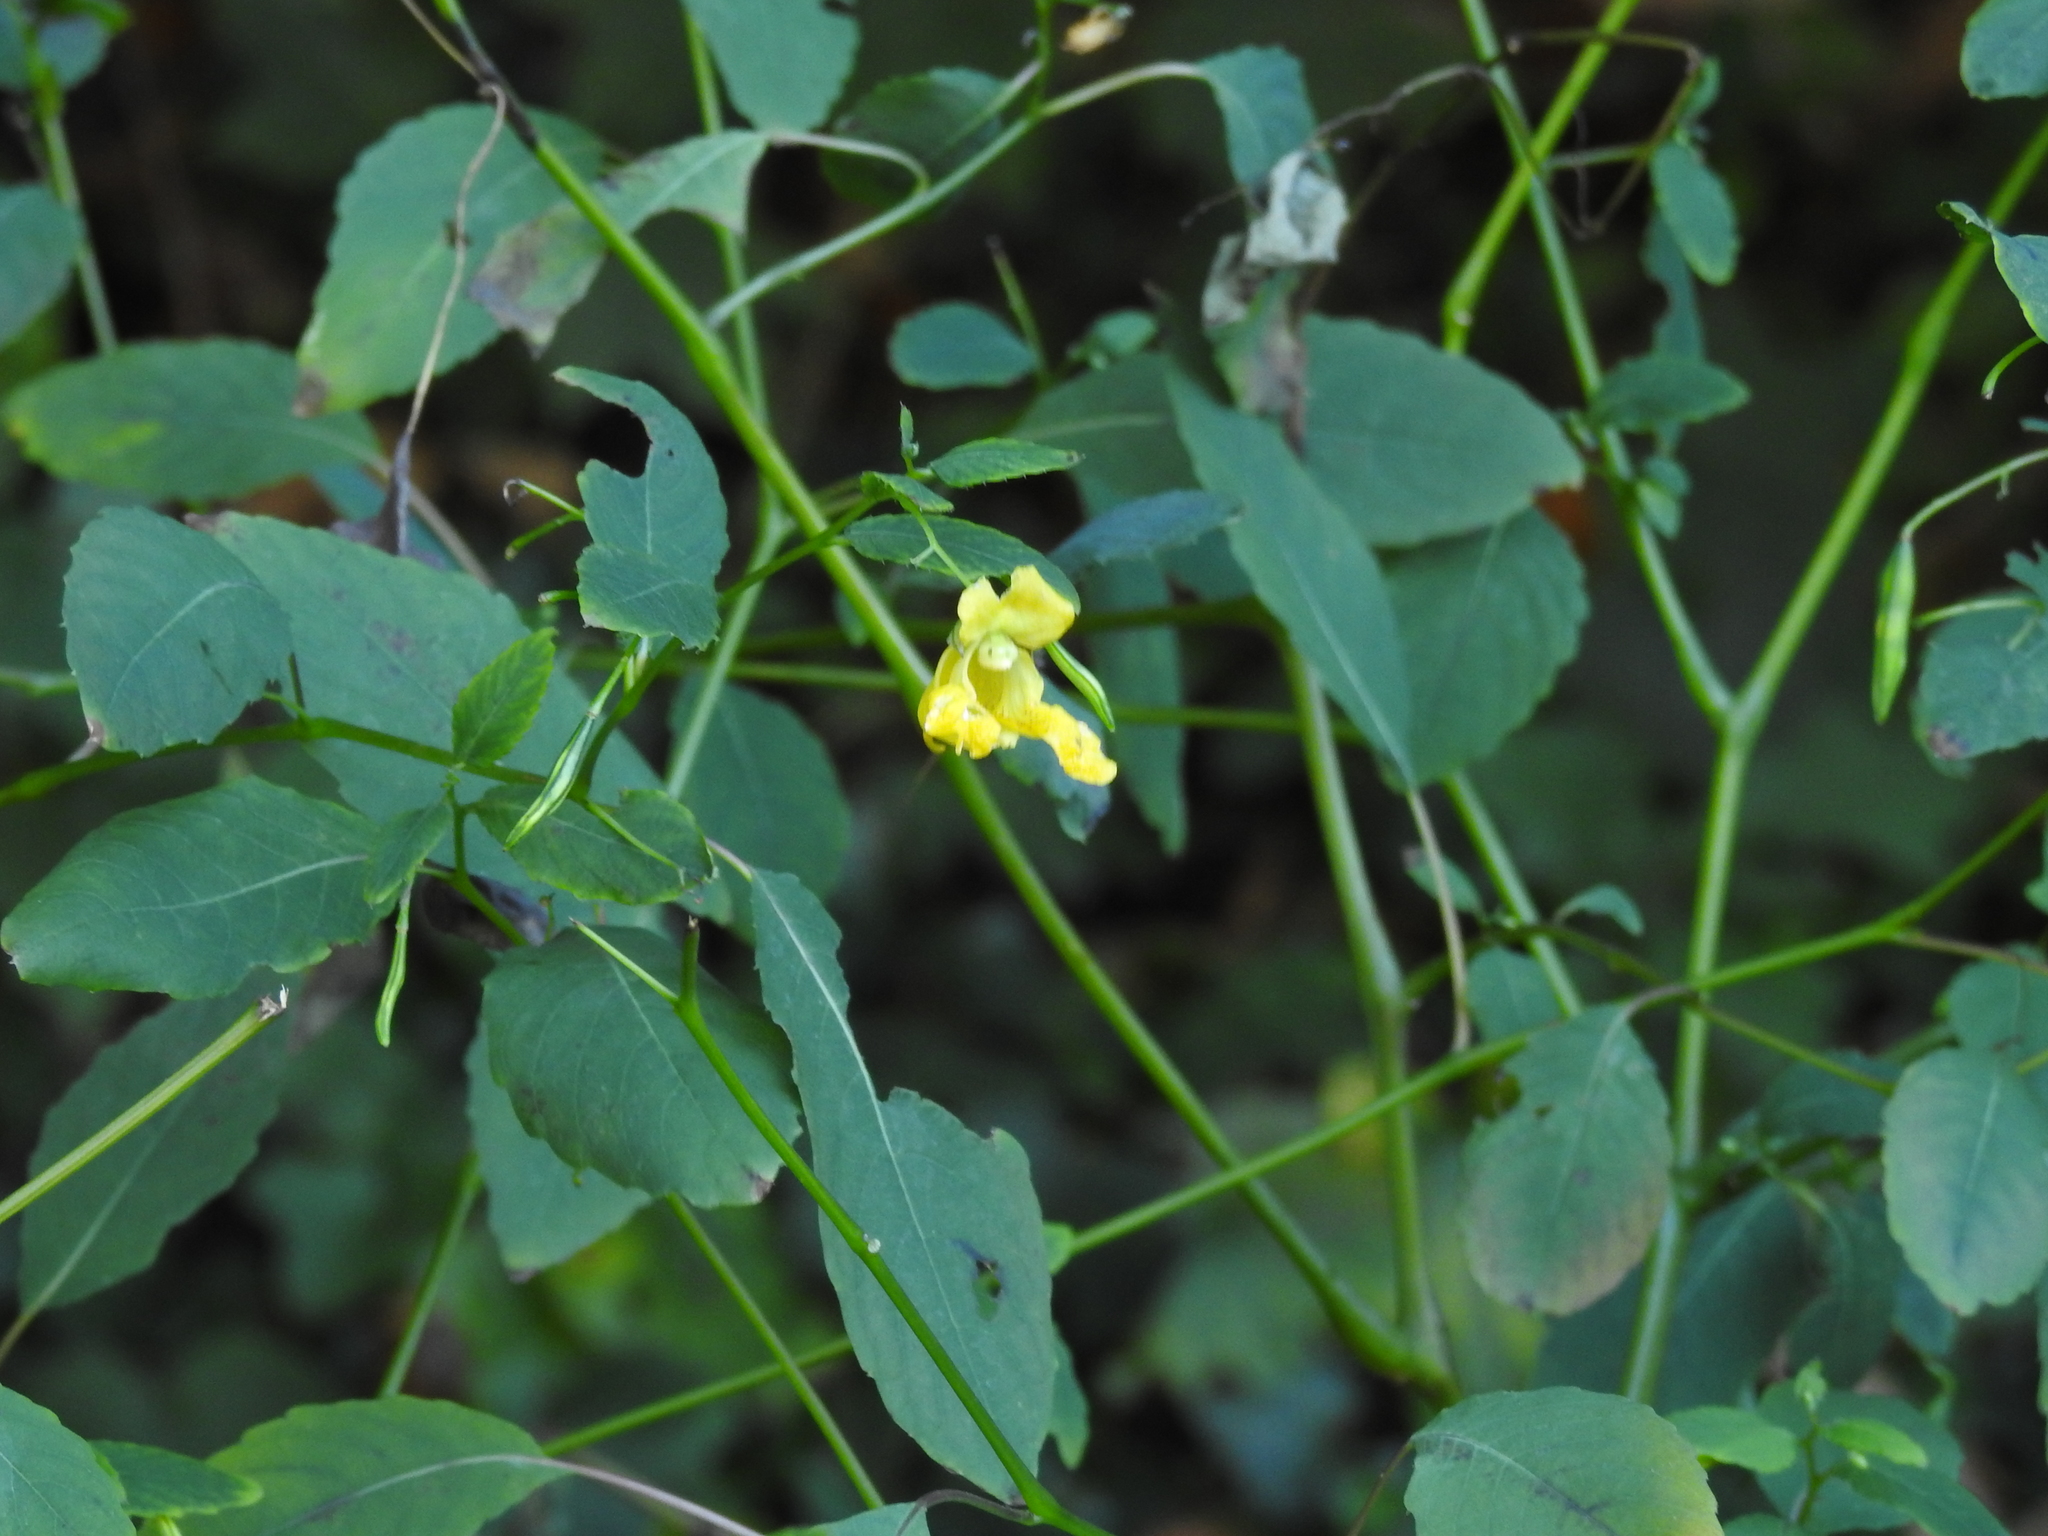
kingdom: Plantae
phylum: Tracheophyta
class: Magnoliopsida
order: Ericales
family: Balsaminaceae
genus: Impatiens
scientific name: Impatiens pallida
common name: Pale snapweed
